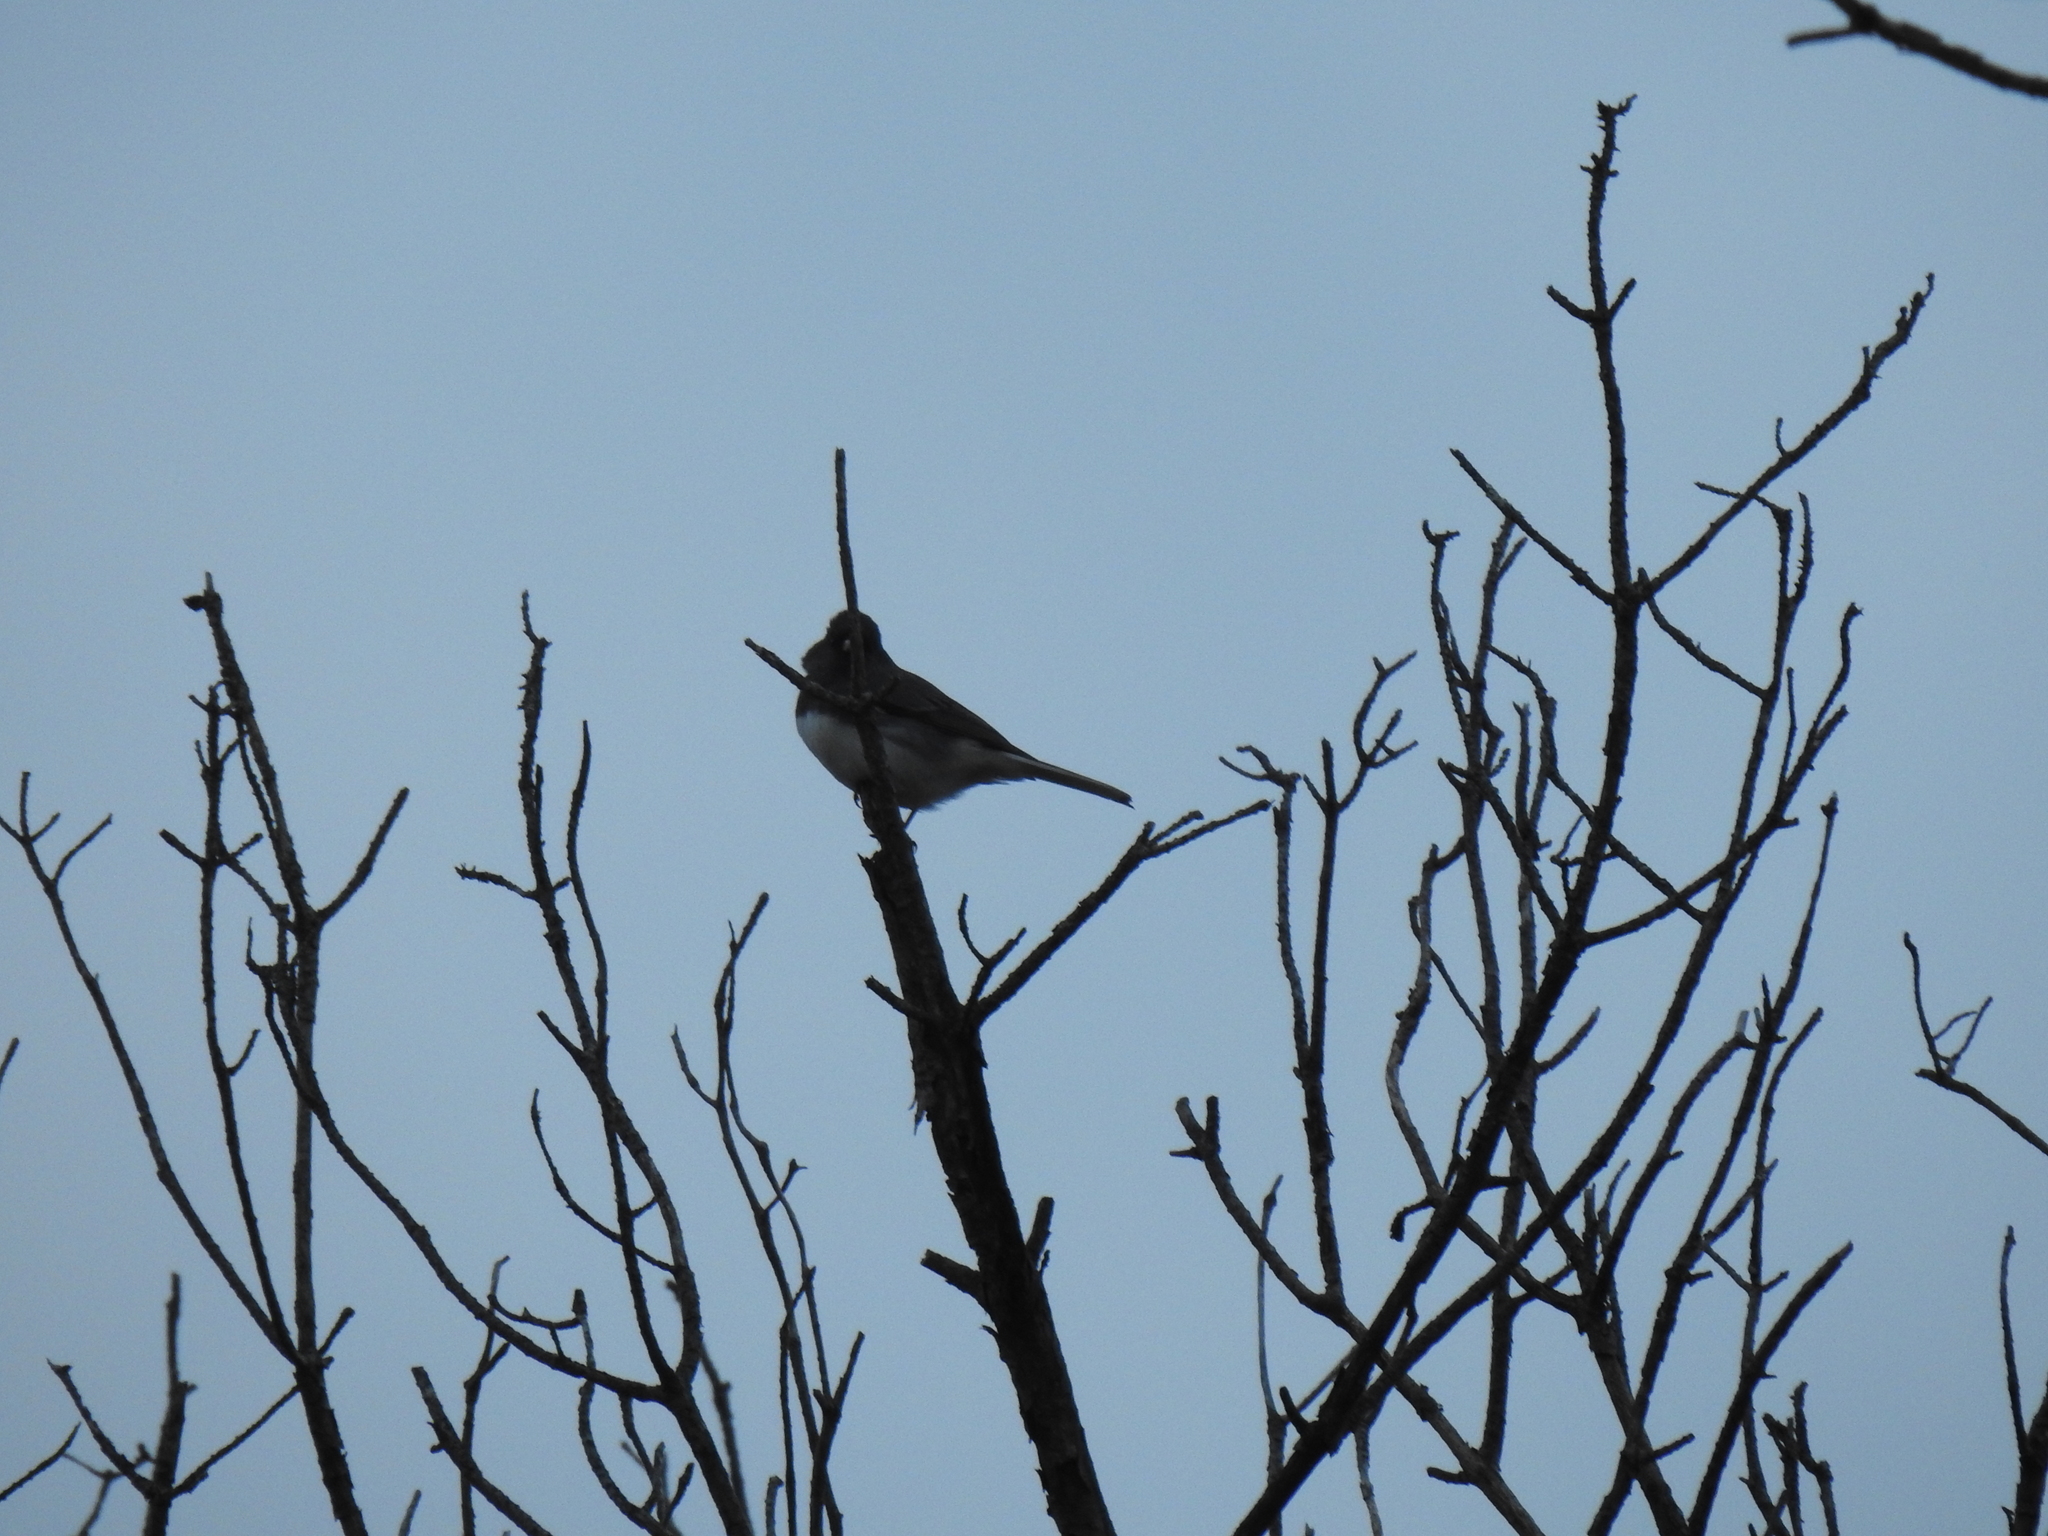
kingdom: Animalia
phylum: Chordata
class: Aves
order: Passeriformes
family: Passerellidae
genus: Junco
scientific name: Junco hyemalis
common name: Dark-eyed junco
